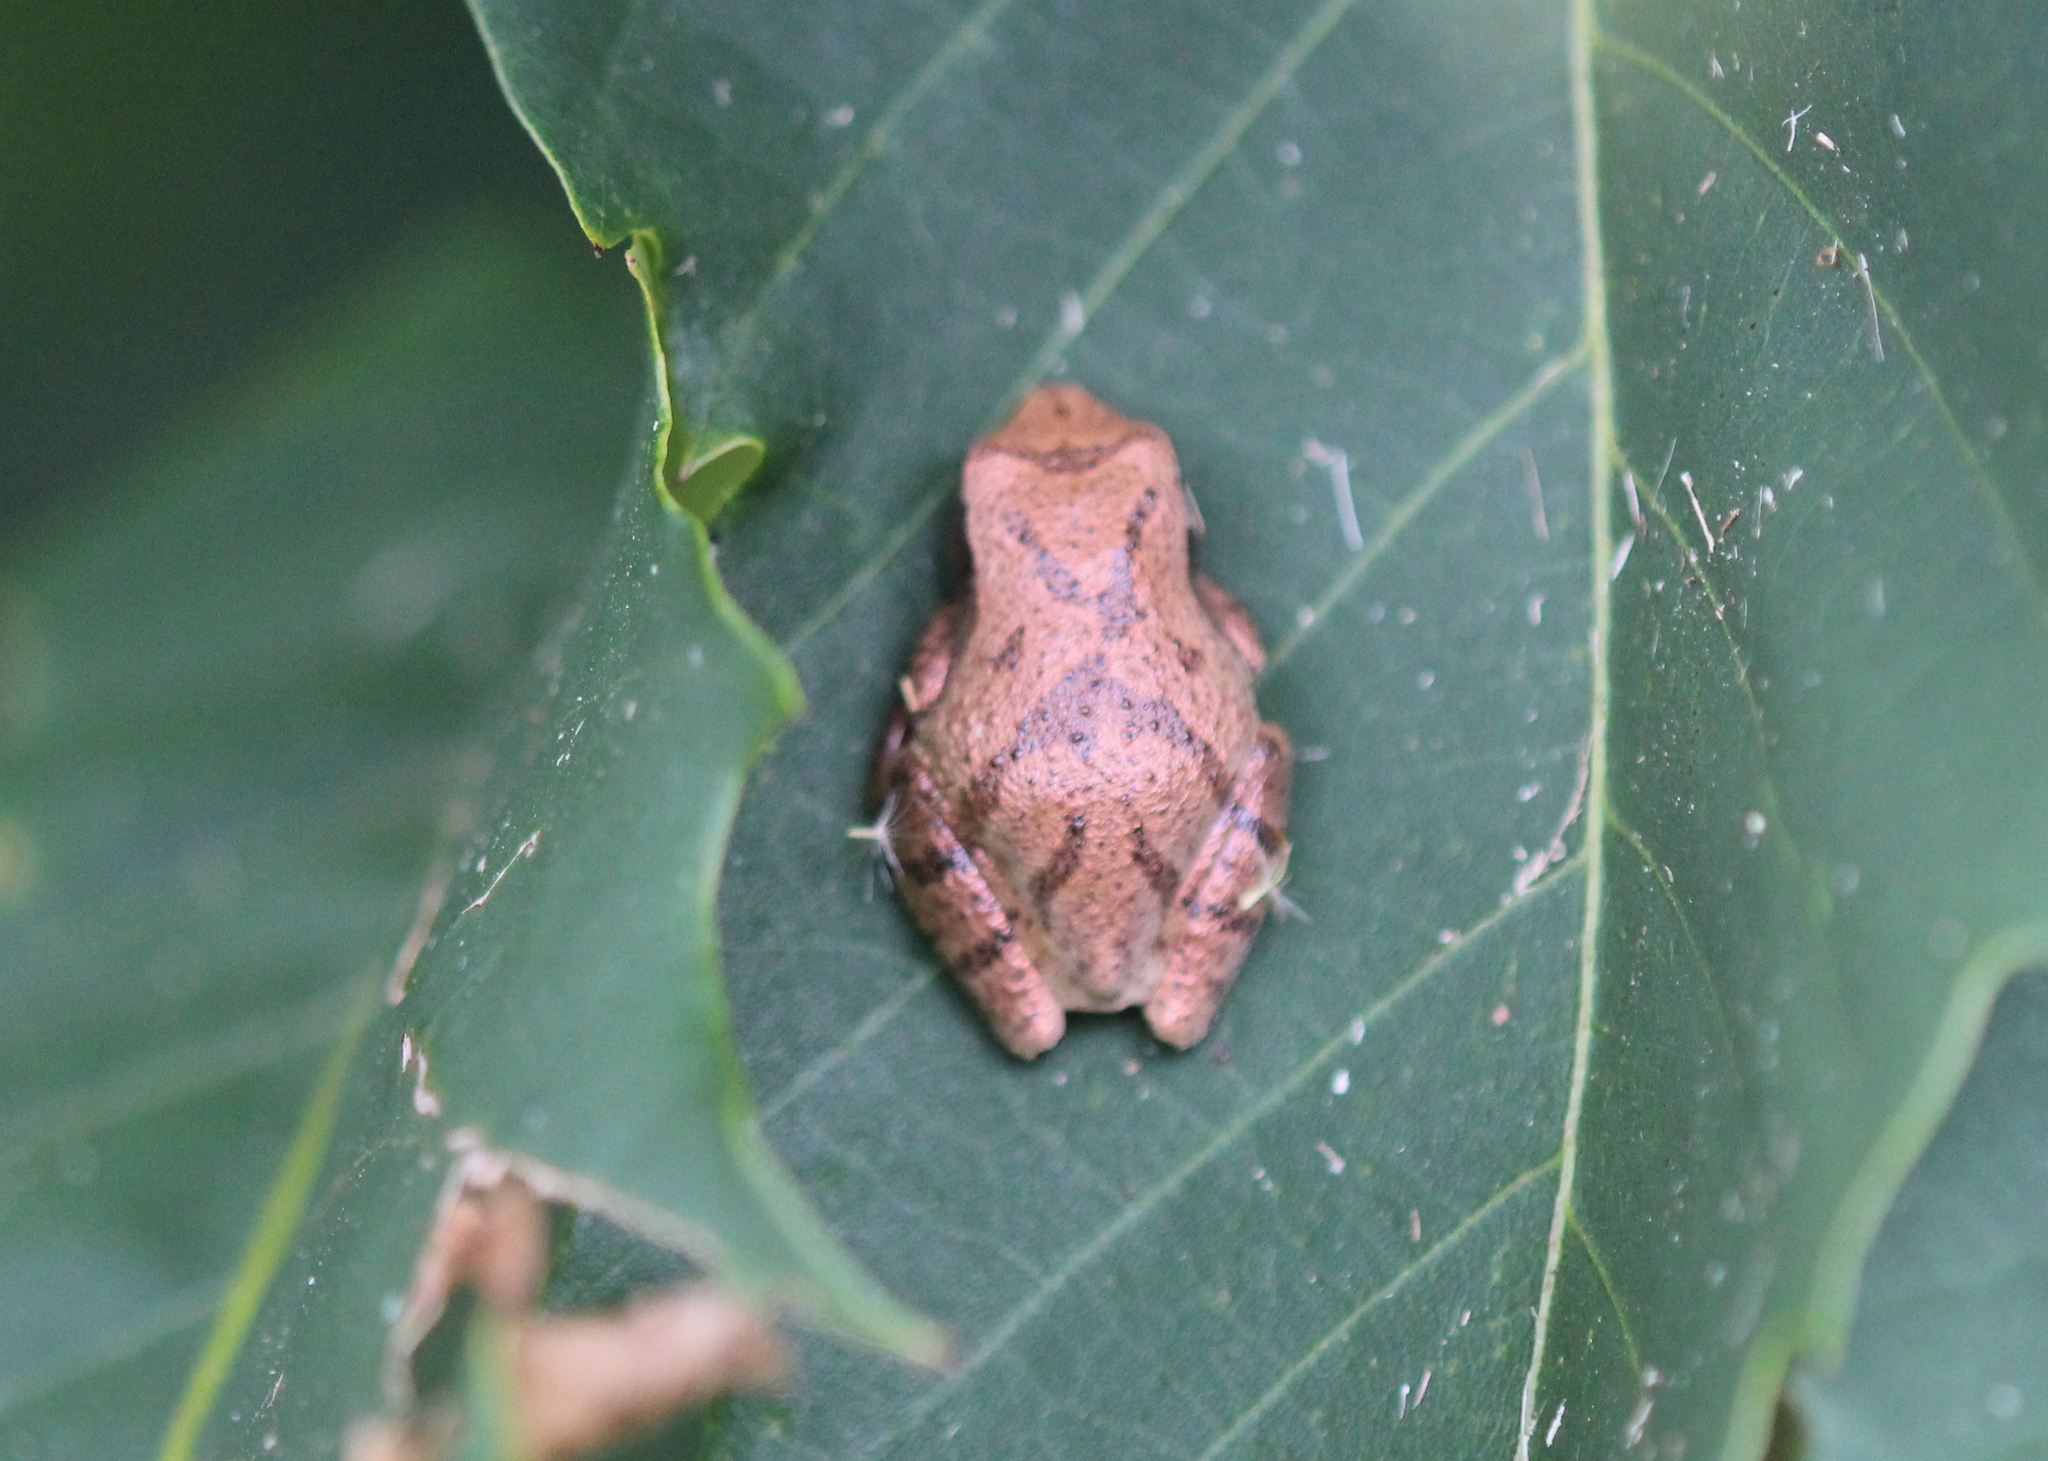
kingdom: Animalia
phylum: Chordata
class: Amphibia
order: Anura
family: Hylidae
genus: Pseudacris
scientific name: Pseudacris crucifer
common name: Spring peeper
